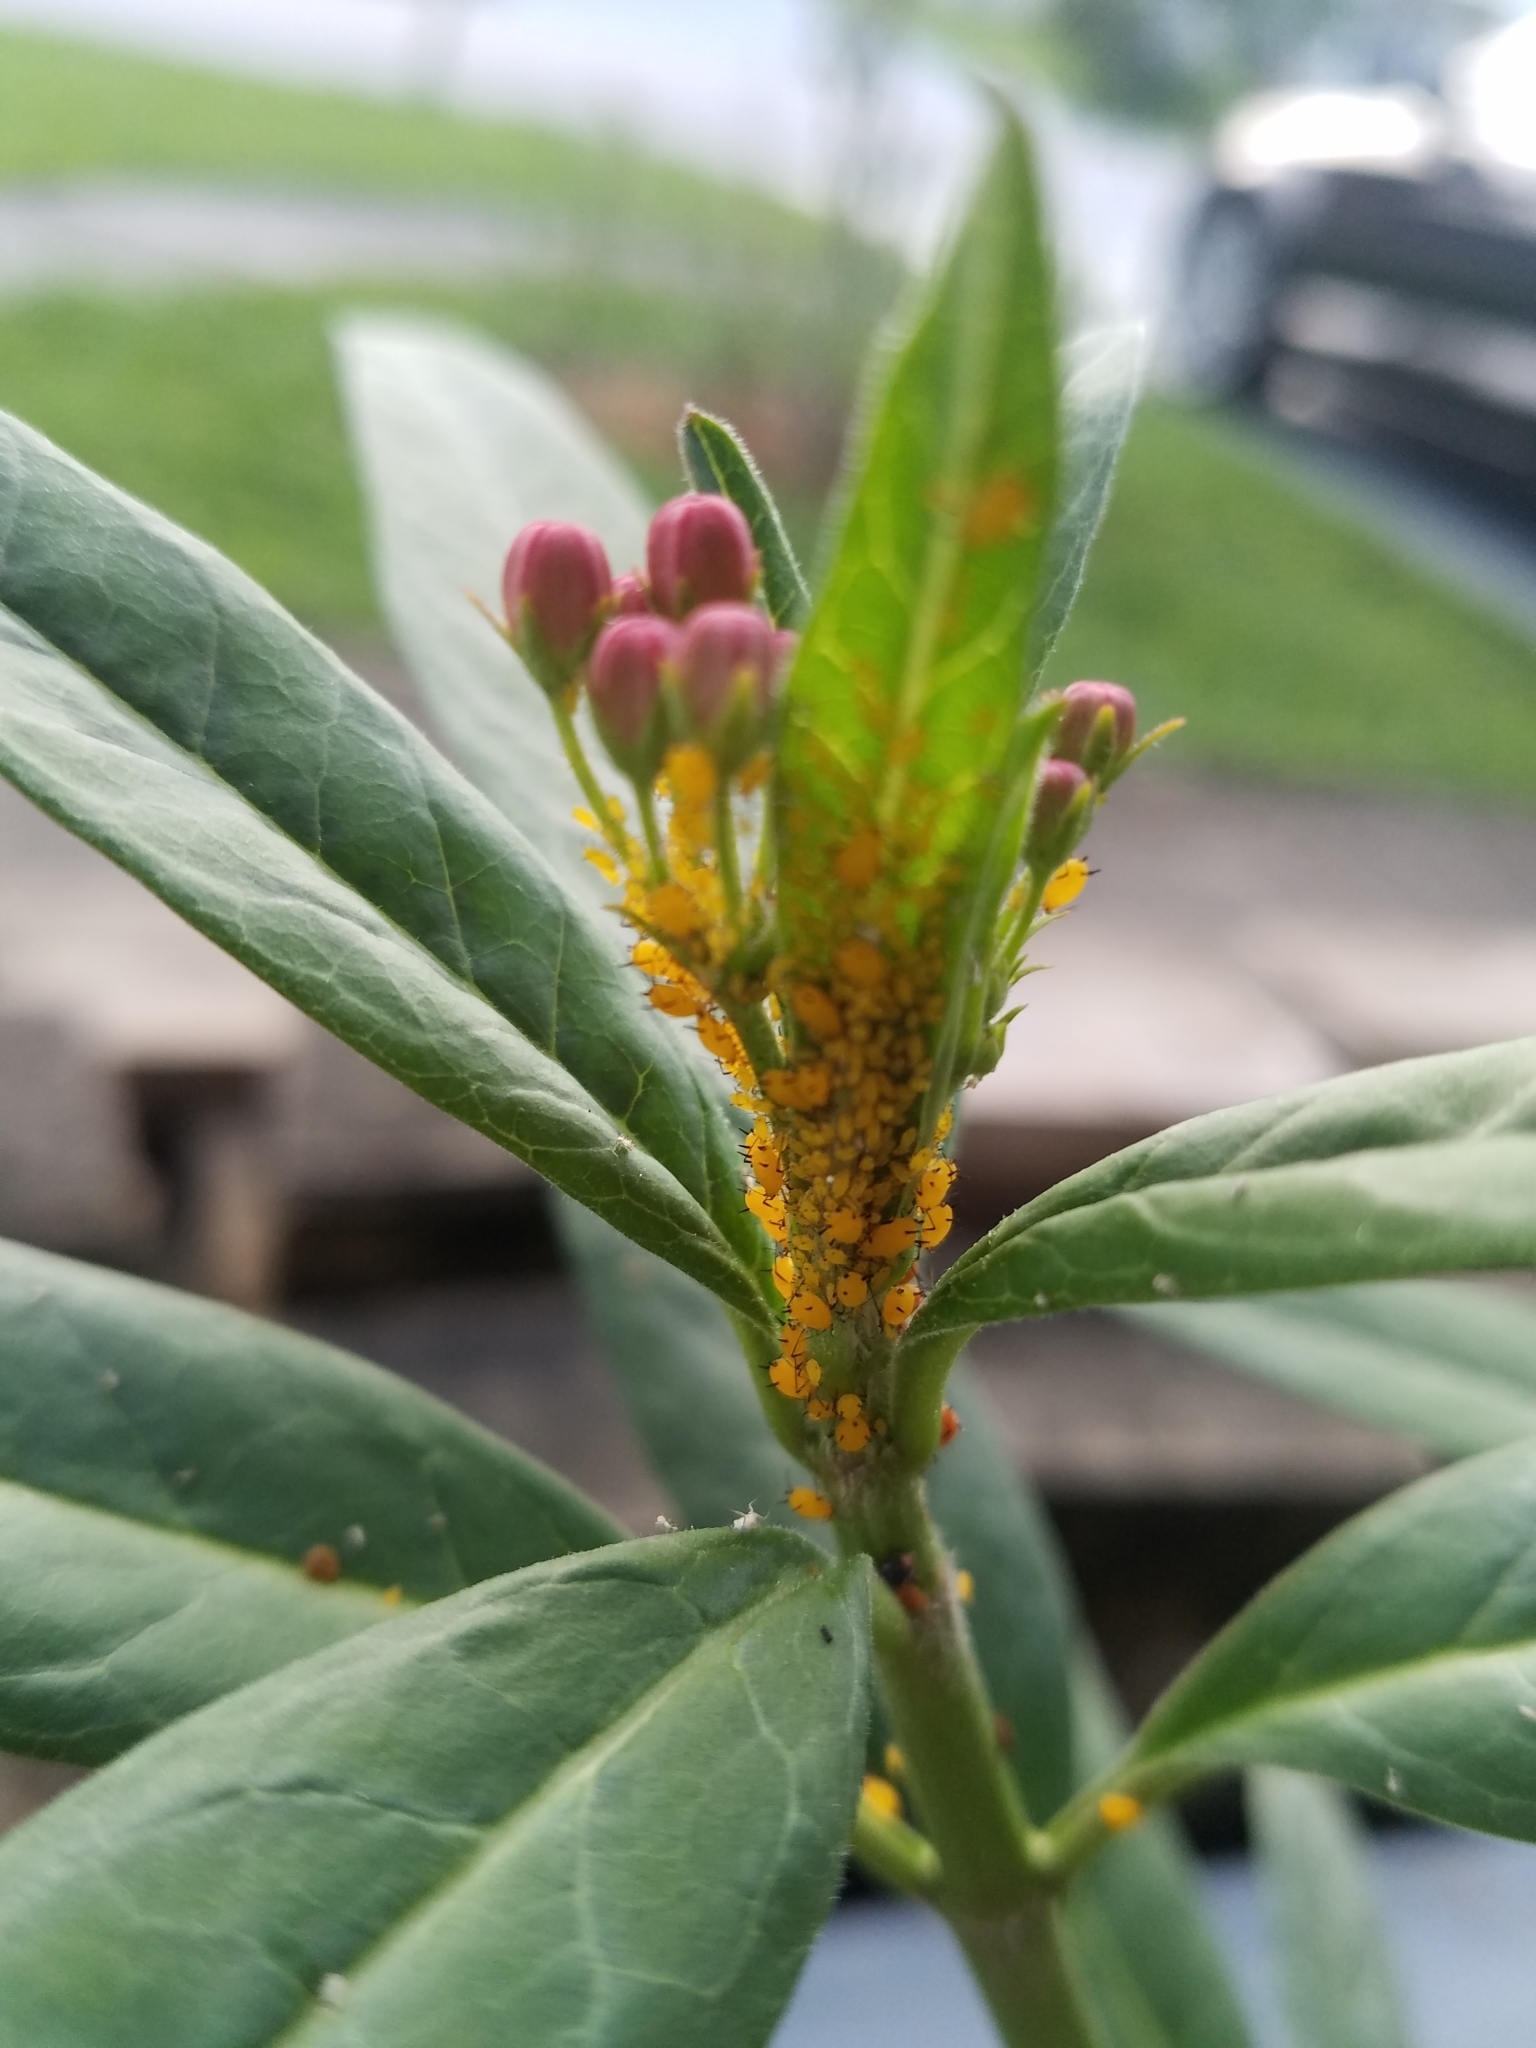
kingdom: Animalia
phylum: Arthropoda
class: Insecta
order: Hemiptera
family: Aphididae
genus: Aphis
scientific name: Aphis nerii
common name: Oleander aphid
